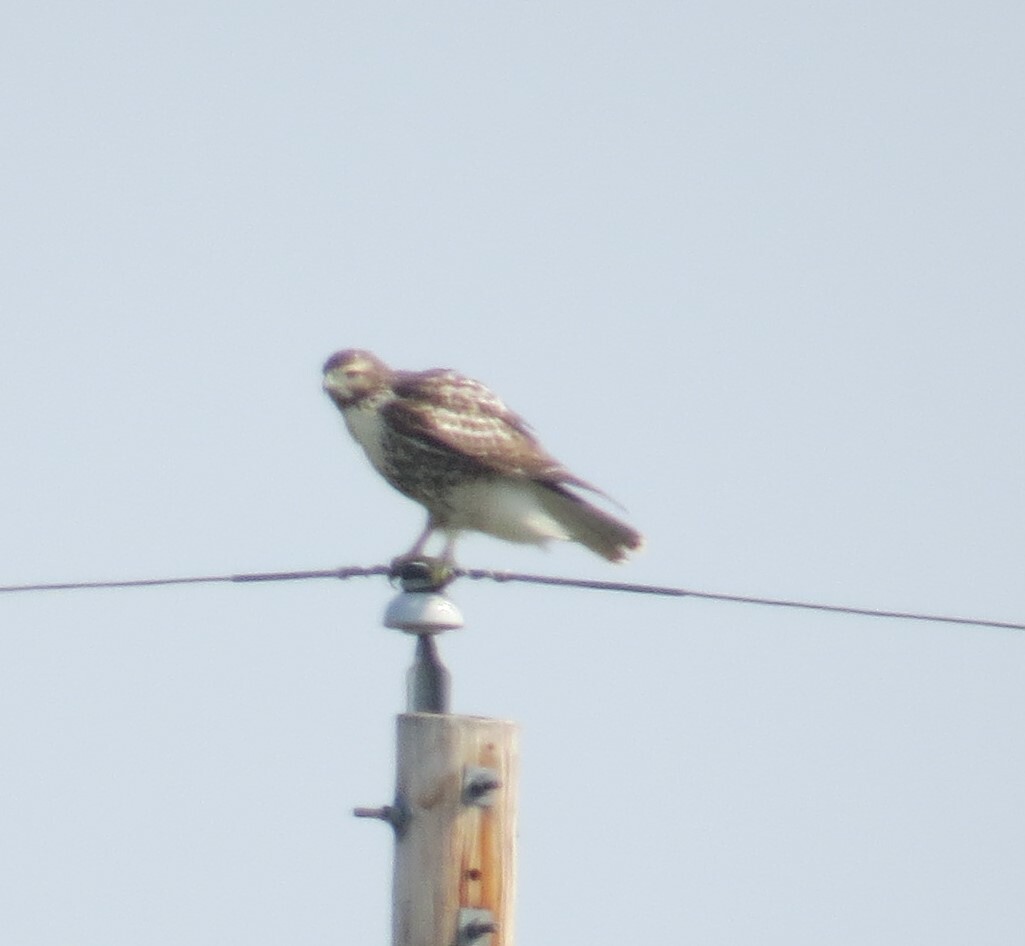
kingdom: Animalia
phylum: Chordata
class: Aves
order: Accipitriformes
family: Accipitridae
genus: Buteo
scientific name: Buteo jamaicensis
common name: Red-tailed hawk
